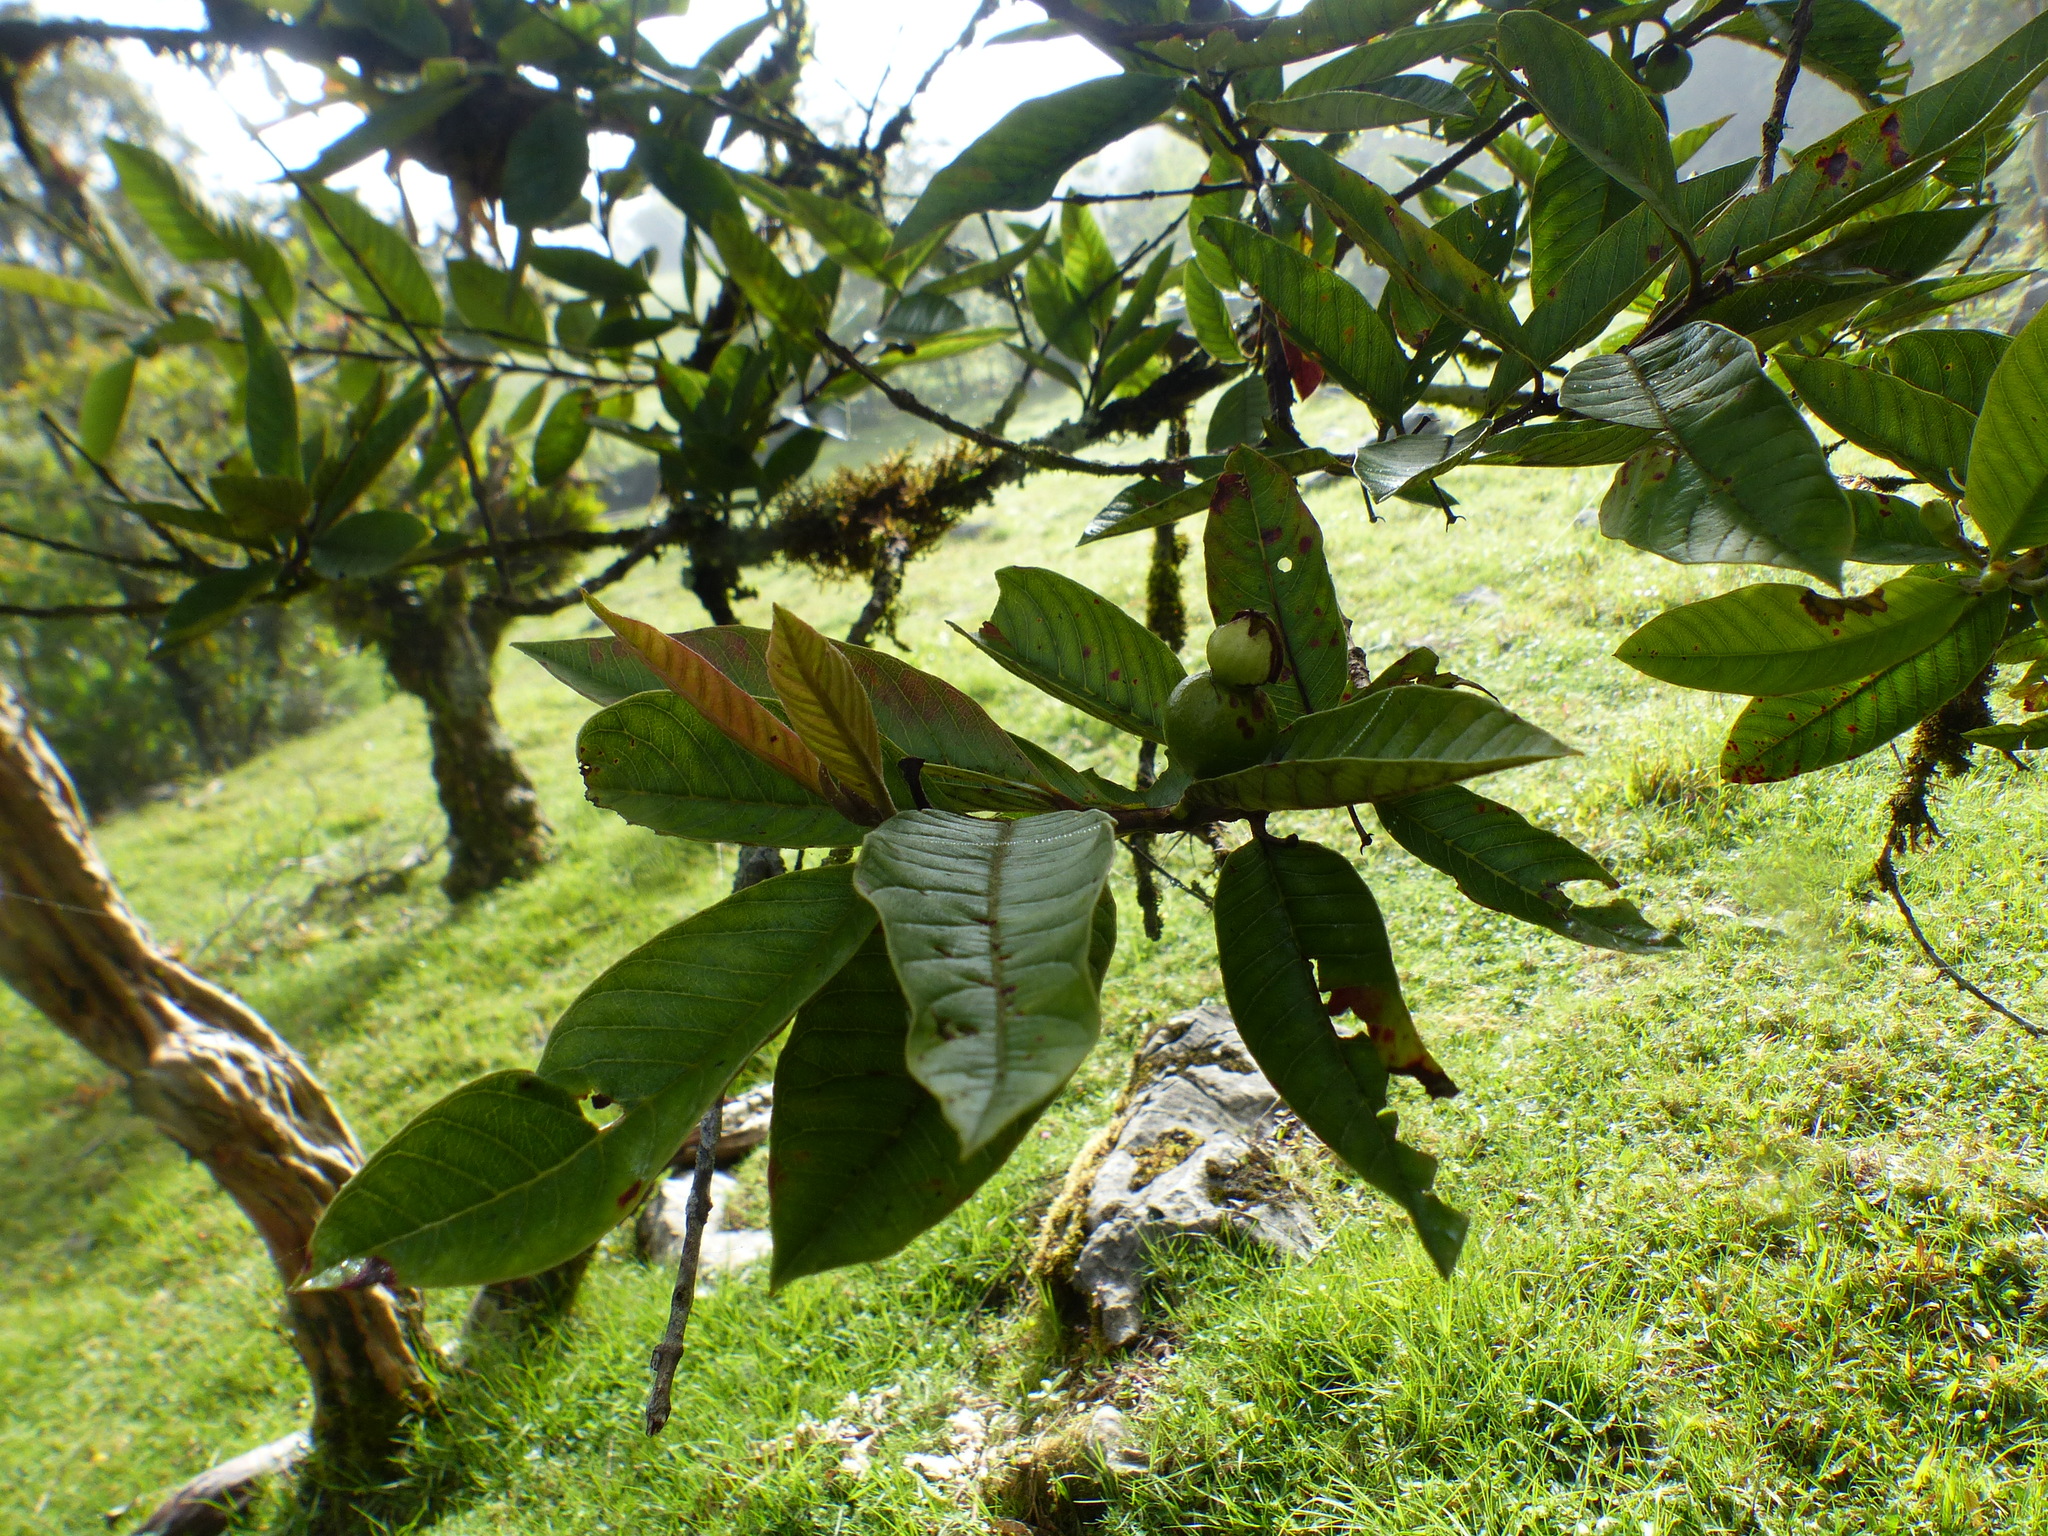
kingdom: Plantae
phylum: Tracheophyta
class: Magnoliopsida
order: Myrtales
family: Myrtaceae
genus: Psidium
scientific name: Psidium guajava
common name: Guava
